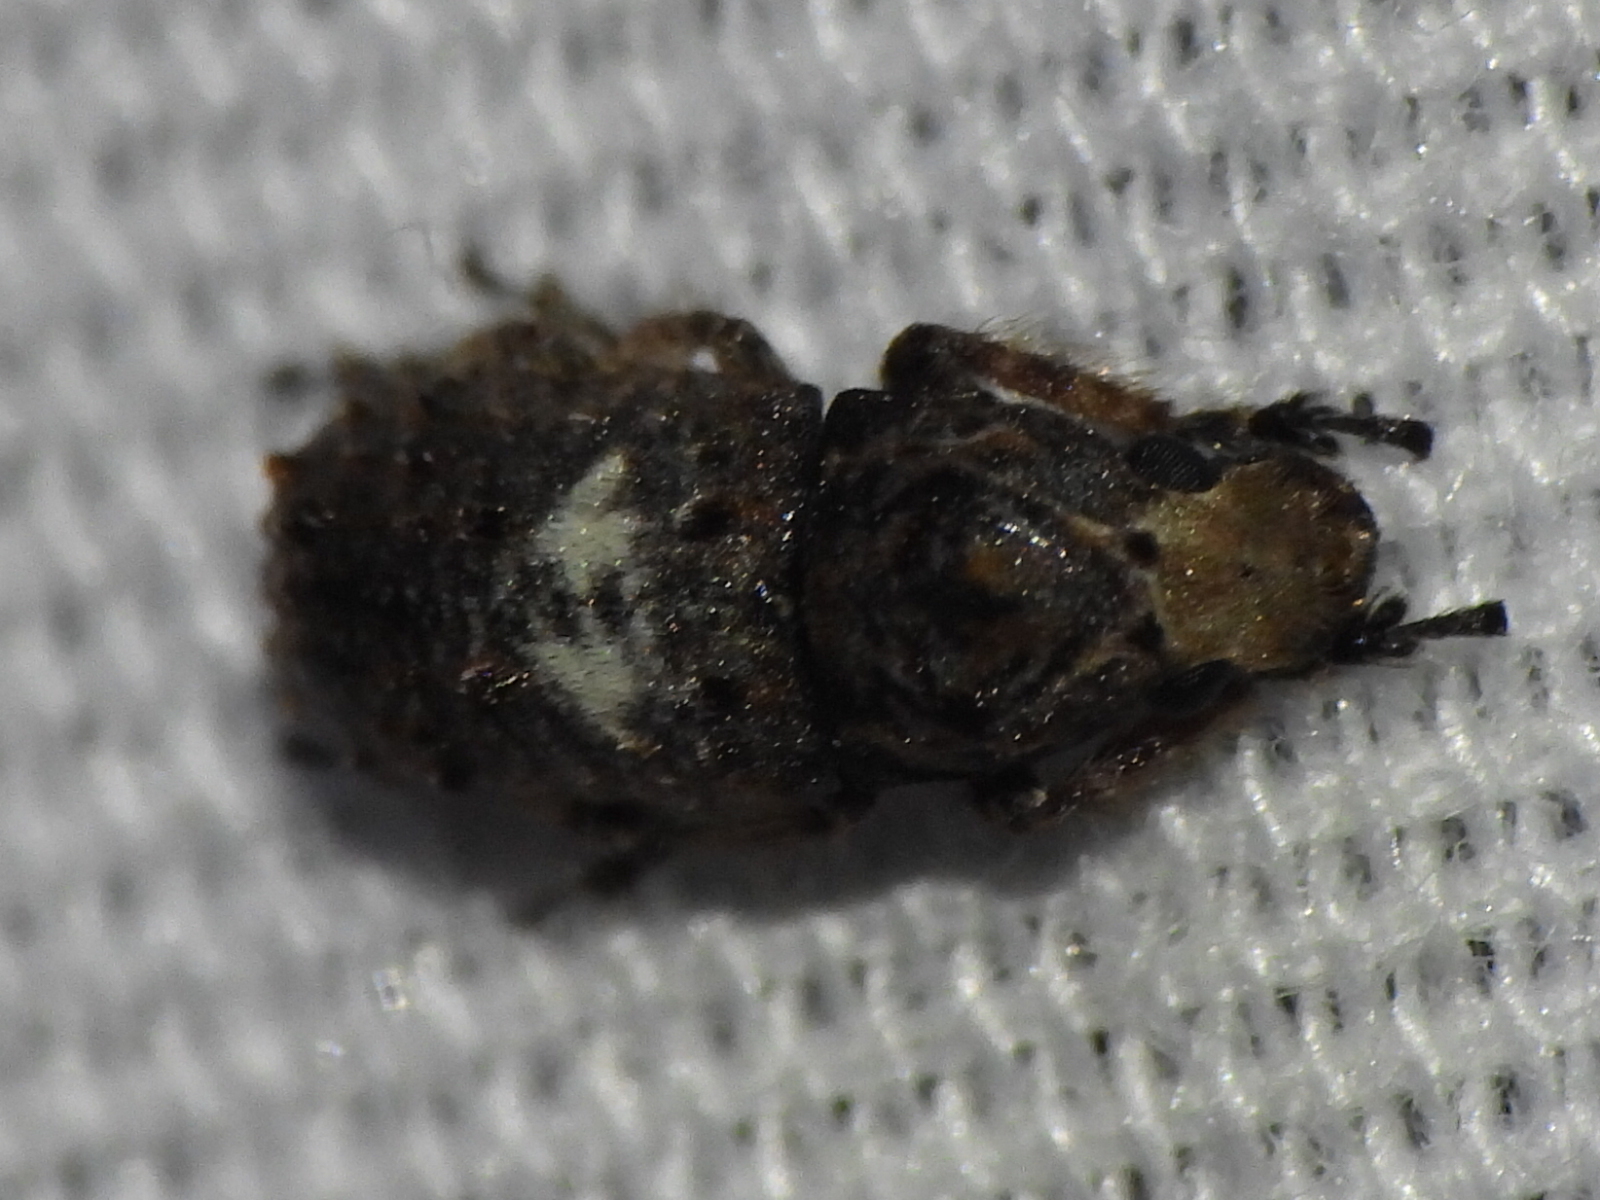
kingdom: Animalia
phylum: Arthropoda
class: Insecta
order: Coleoptera
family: Anthribidae
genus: Toxonotus
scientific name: Toxonotus cornutus
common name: Fungus weevil
